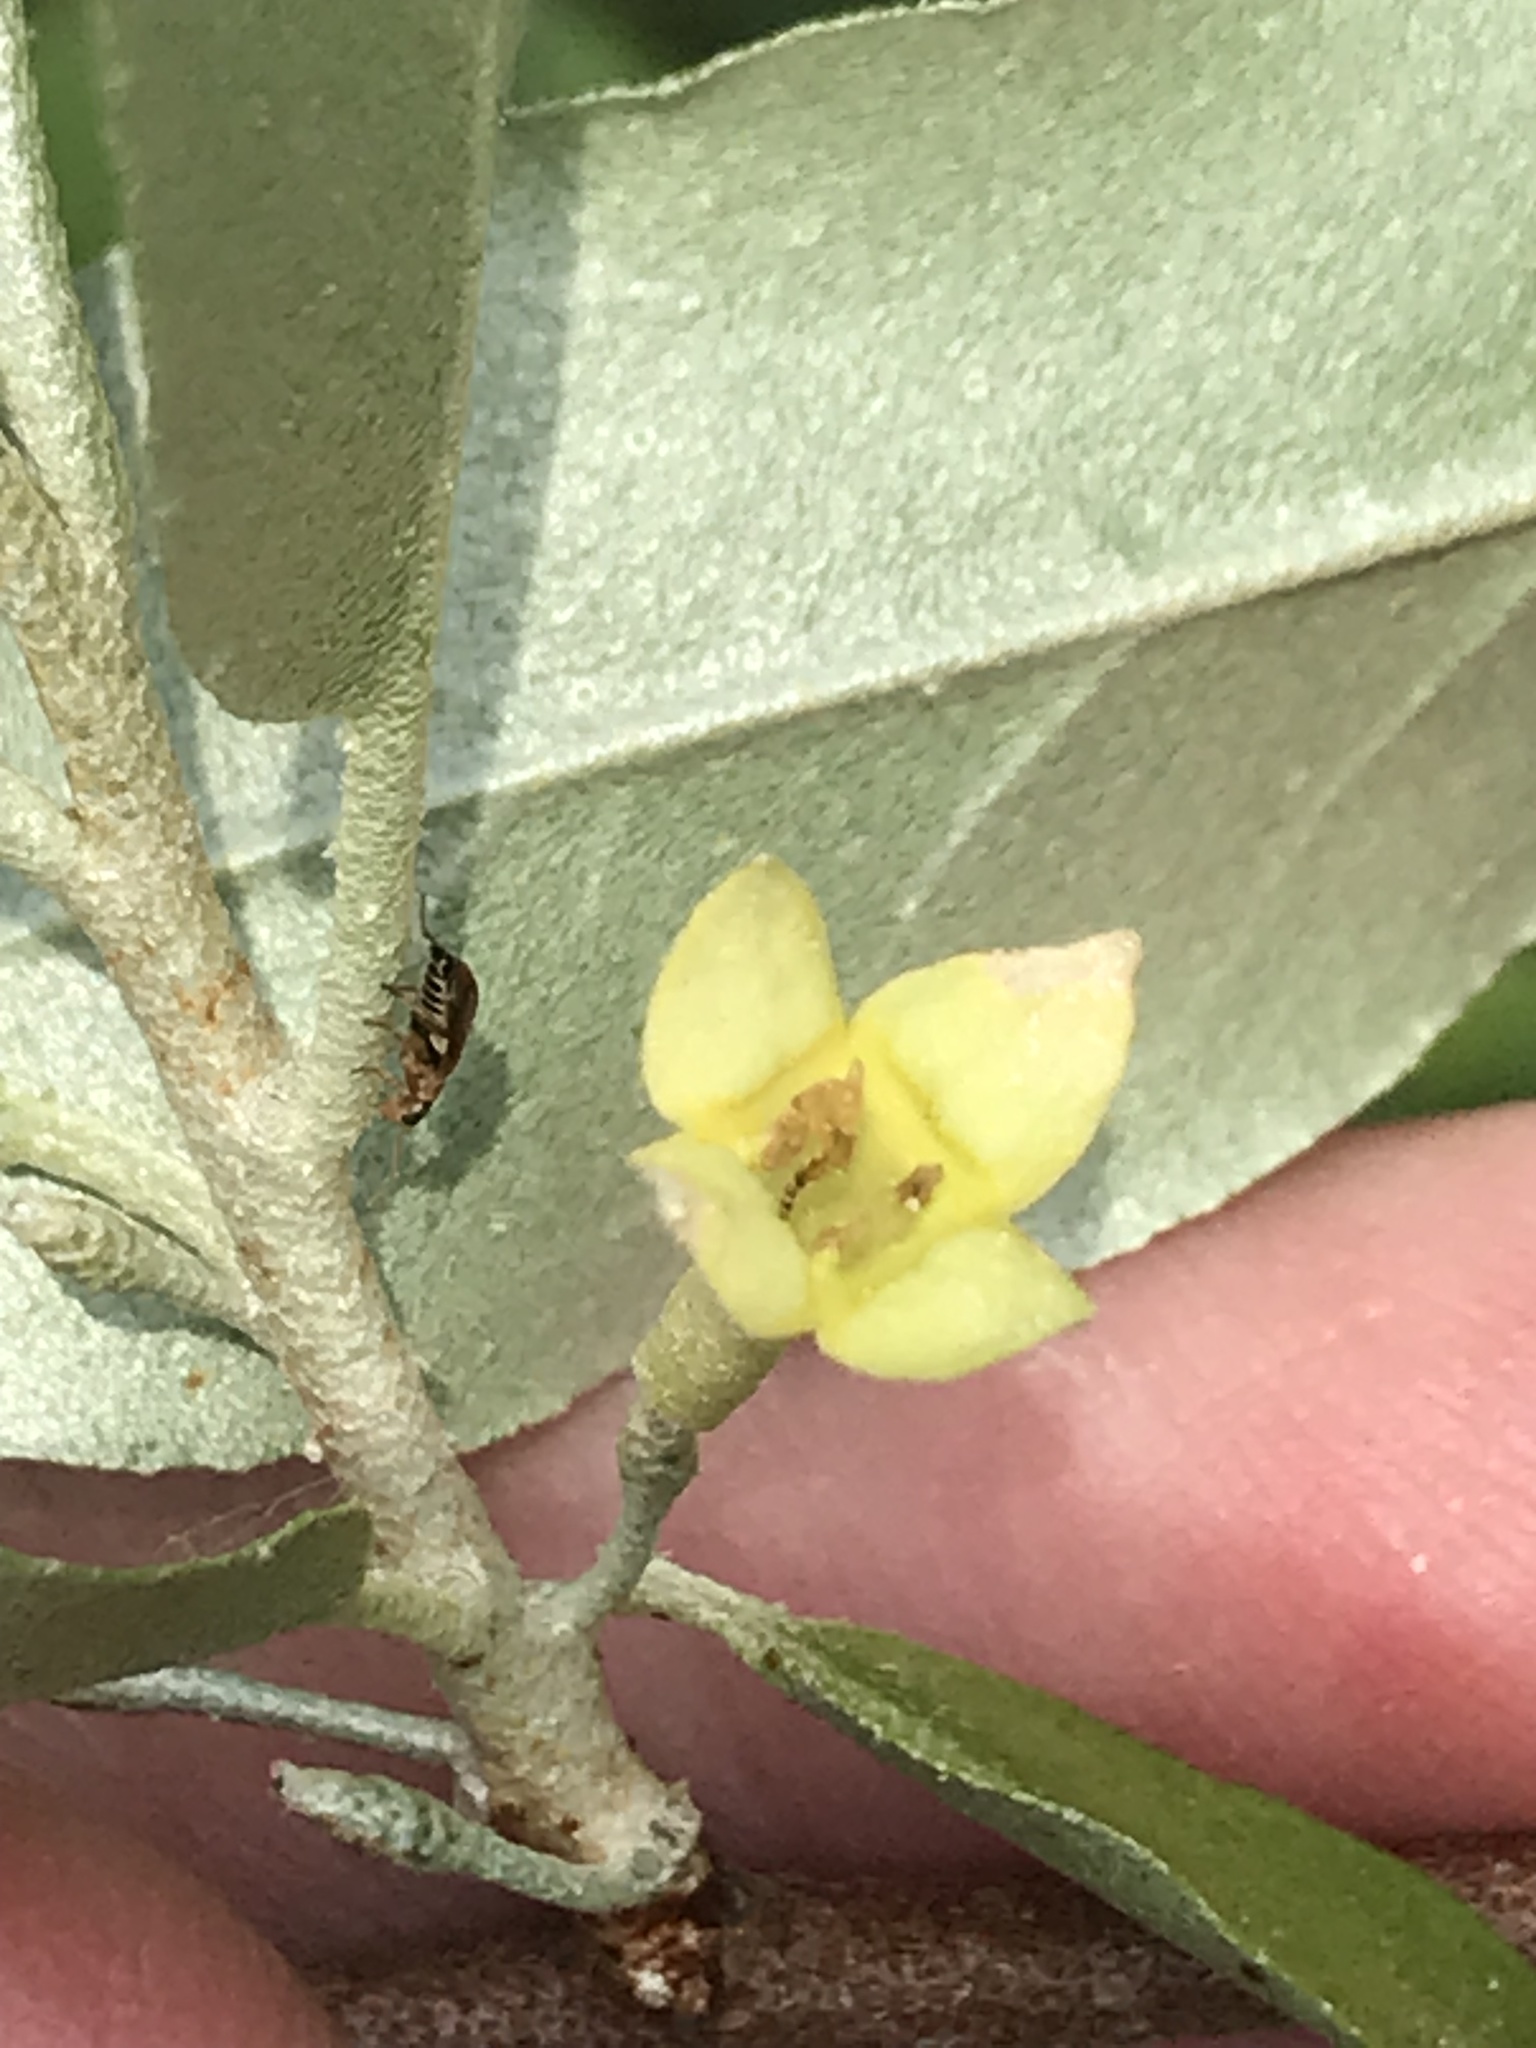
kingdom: Plantae
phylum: Tracheophyta
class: Magnoliopsida
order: Rosales
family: Elaeagnaceae
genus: Elaeagnus
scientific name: Elaeagnus umbellata
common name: Autumn olive
